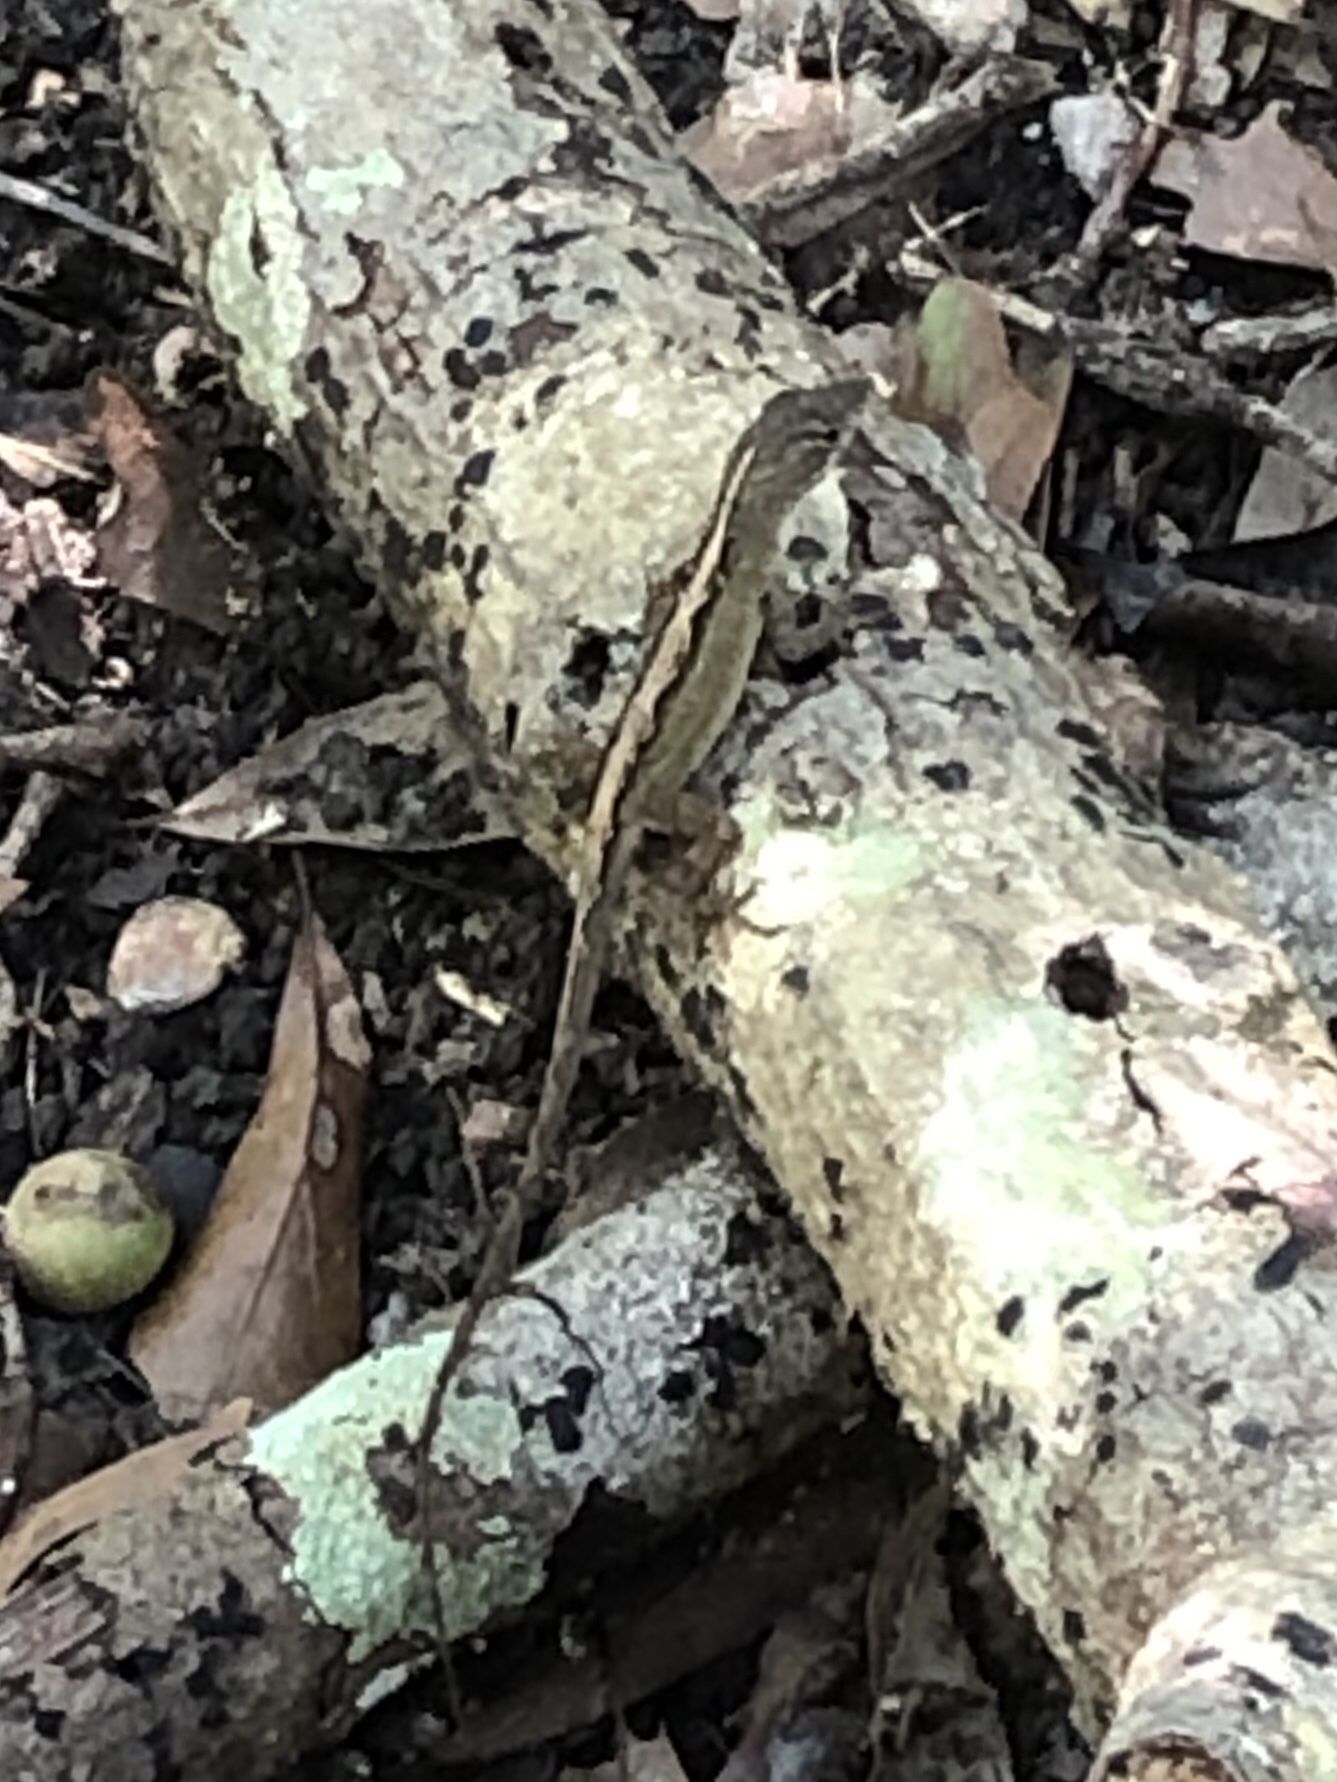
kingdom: Animalia
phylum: Chordata
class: Squamata
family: Dactyloidae
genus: Anolis
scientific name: Anolis sagrei
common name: Brown anole
